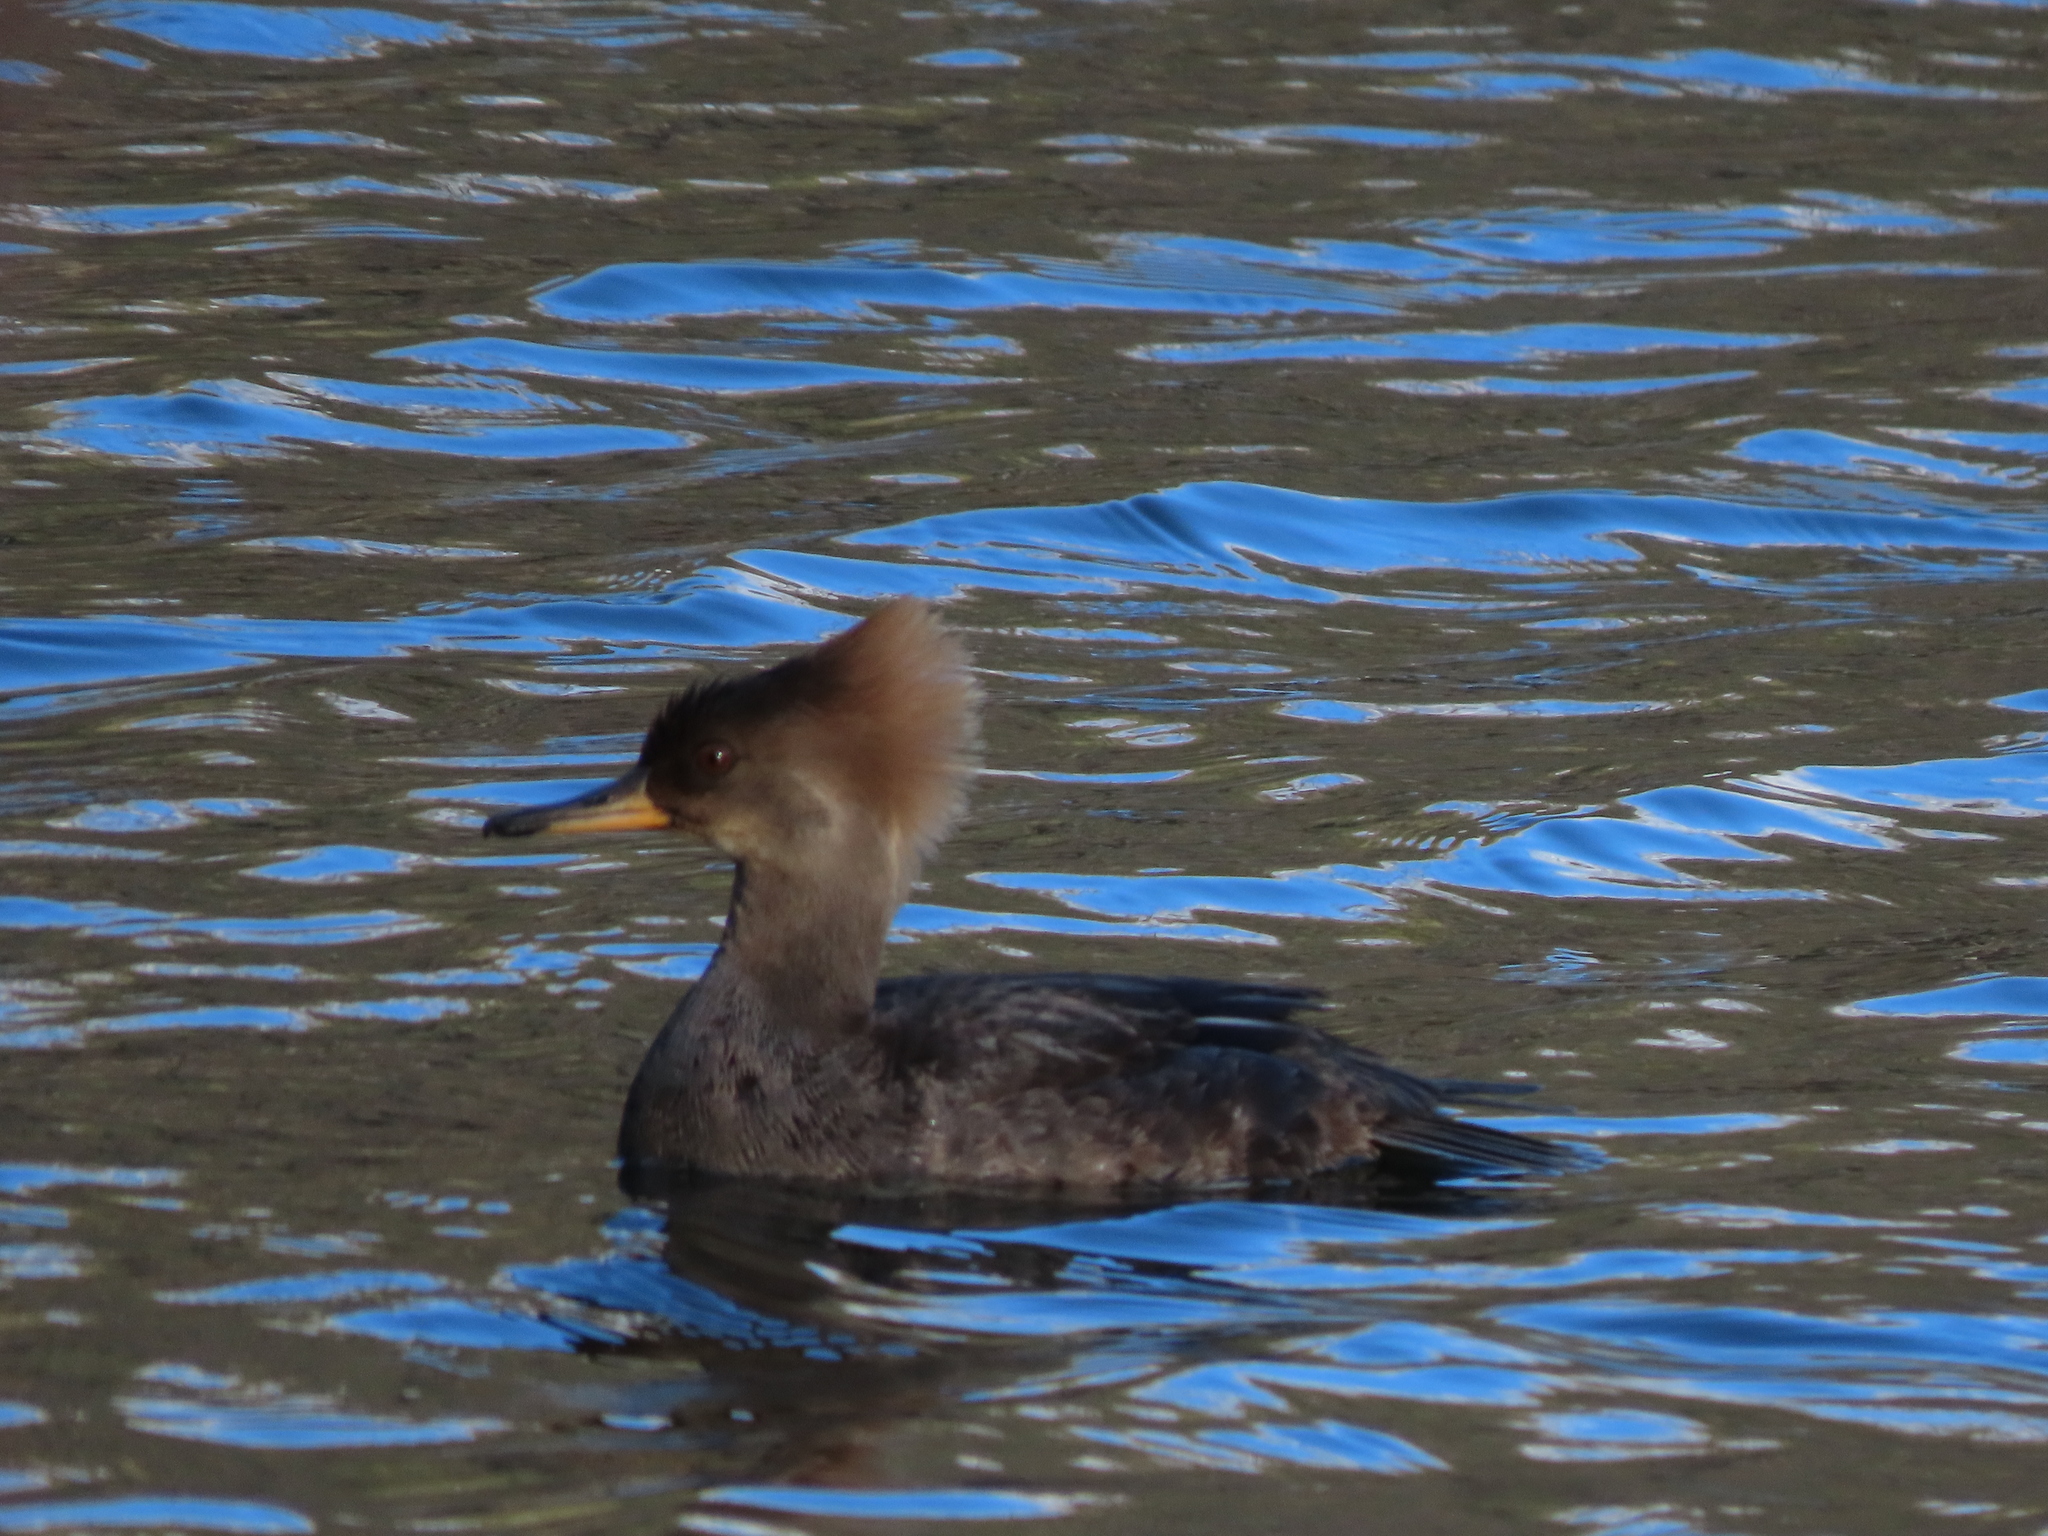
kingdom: Animalia
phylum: Chordata
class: Aves
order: Anseriformes
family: Anatidae
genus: Lophodytes
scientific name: Lophodytes cucullatus
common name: Hooded merganser
